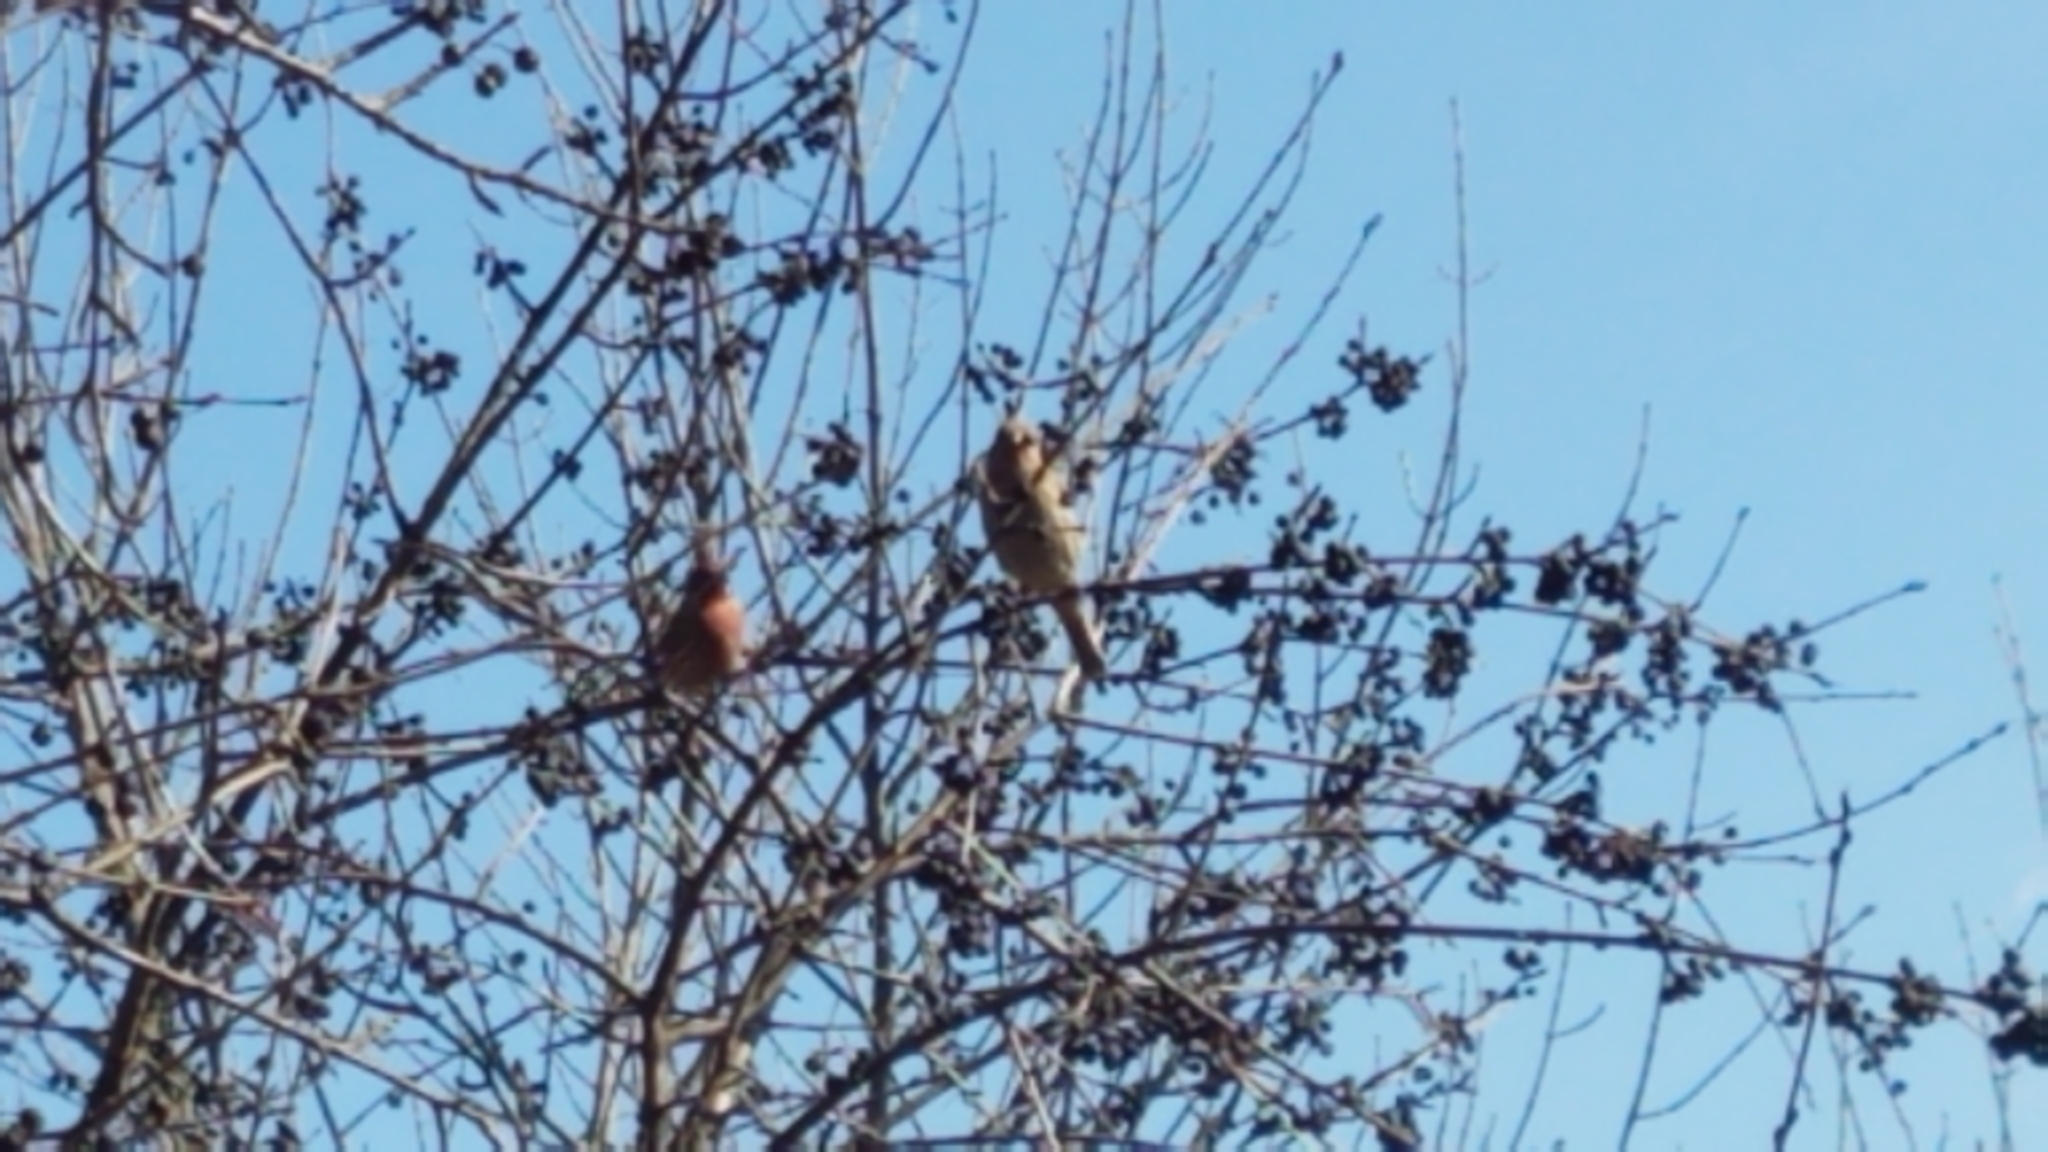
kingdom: Animalia
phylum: Chordata
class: Aves
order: Passeriformes
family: Fringillidae
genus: Haemorhous
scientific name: Haemorhous mexicanus
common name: House finch
